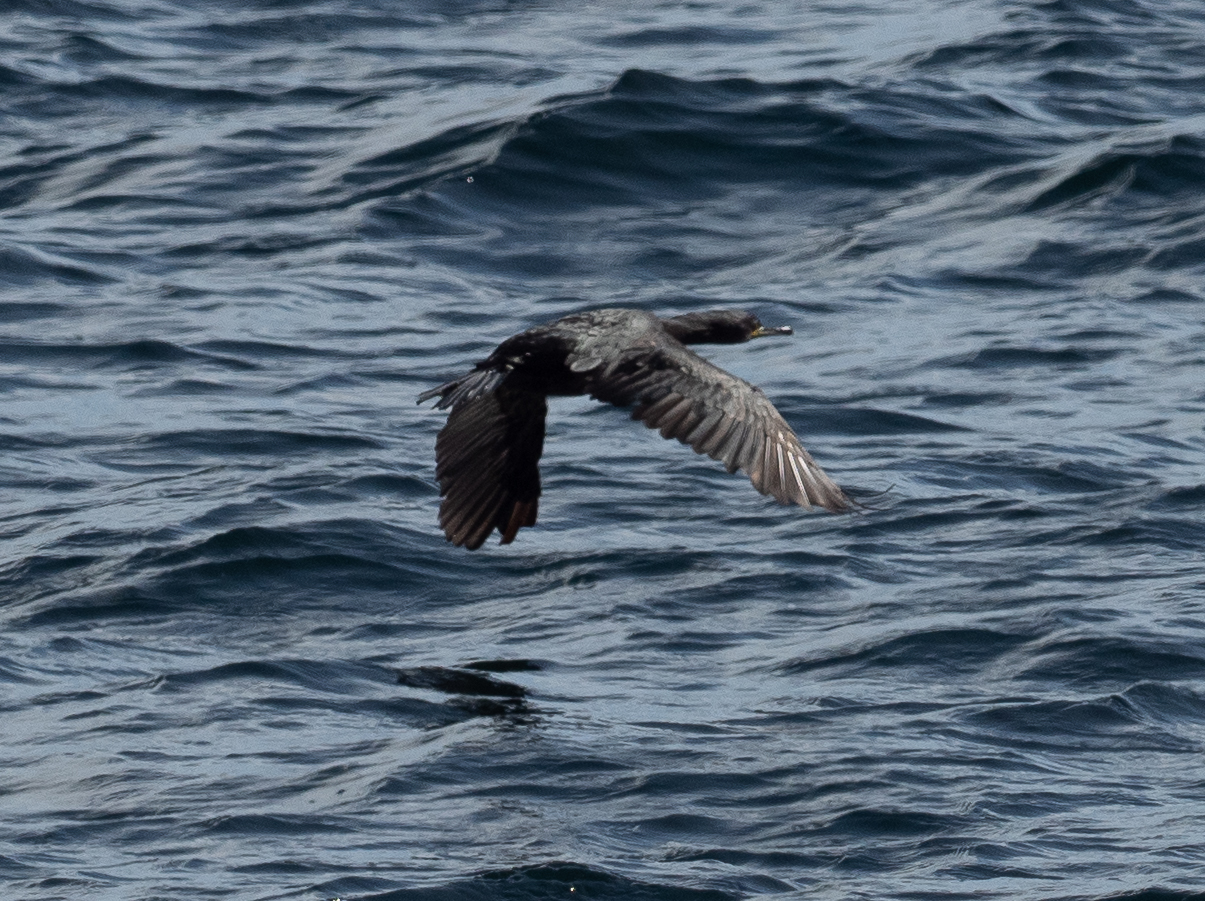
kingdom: Animalia
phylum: Chordata
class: Aves
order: Suliformes
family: Phalacrocoracidae
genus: Phalacrocorax
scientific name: Phalacrocorax aristotelis
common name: European shag
